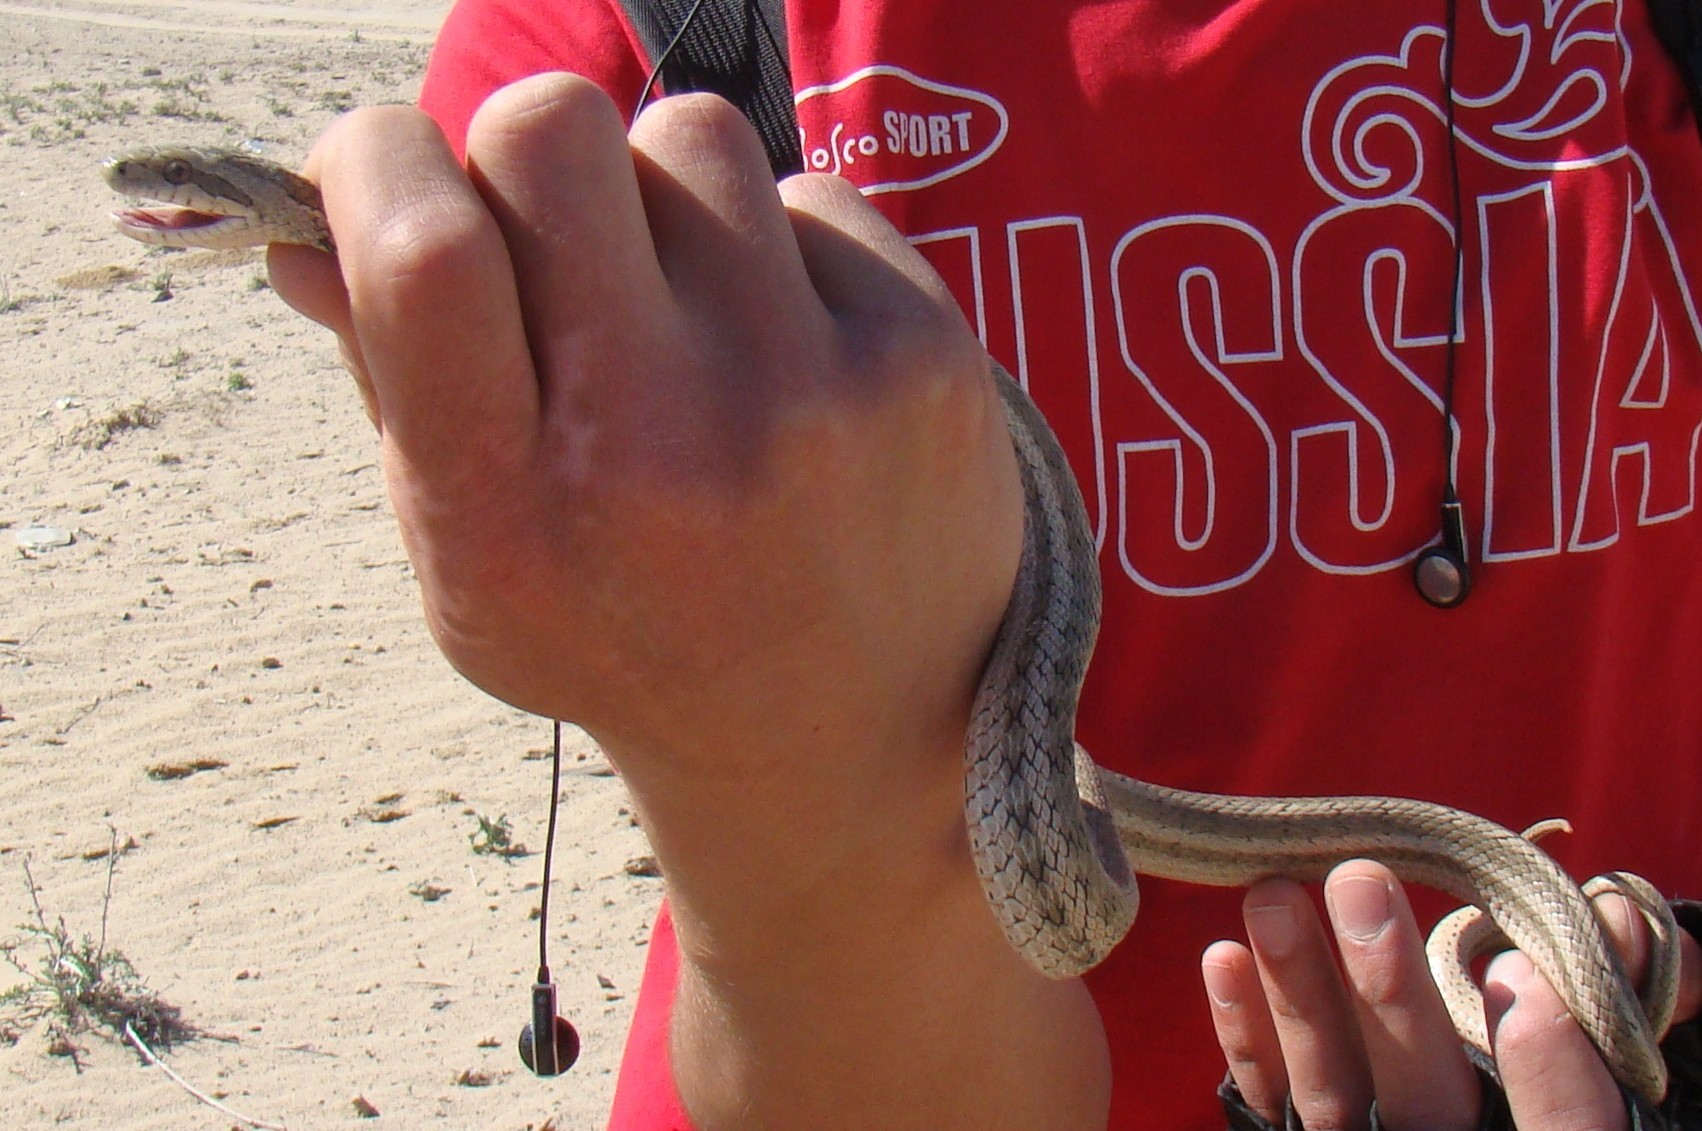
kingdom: Animalia
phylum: Chordata
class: Squamata
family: Colubridae
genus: Elaphe
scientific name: Elaphe dione
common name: Dione ratsnake
